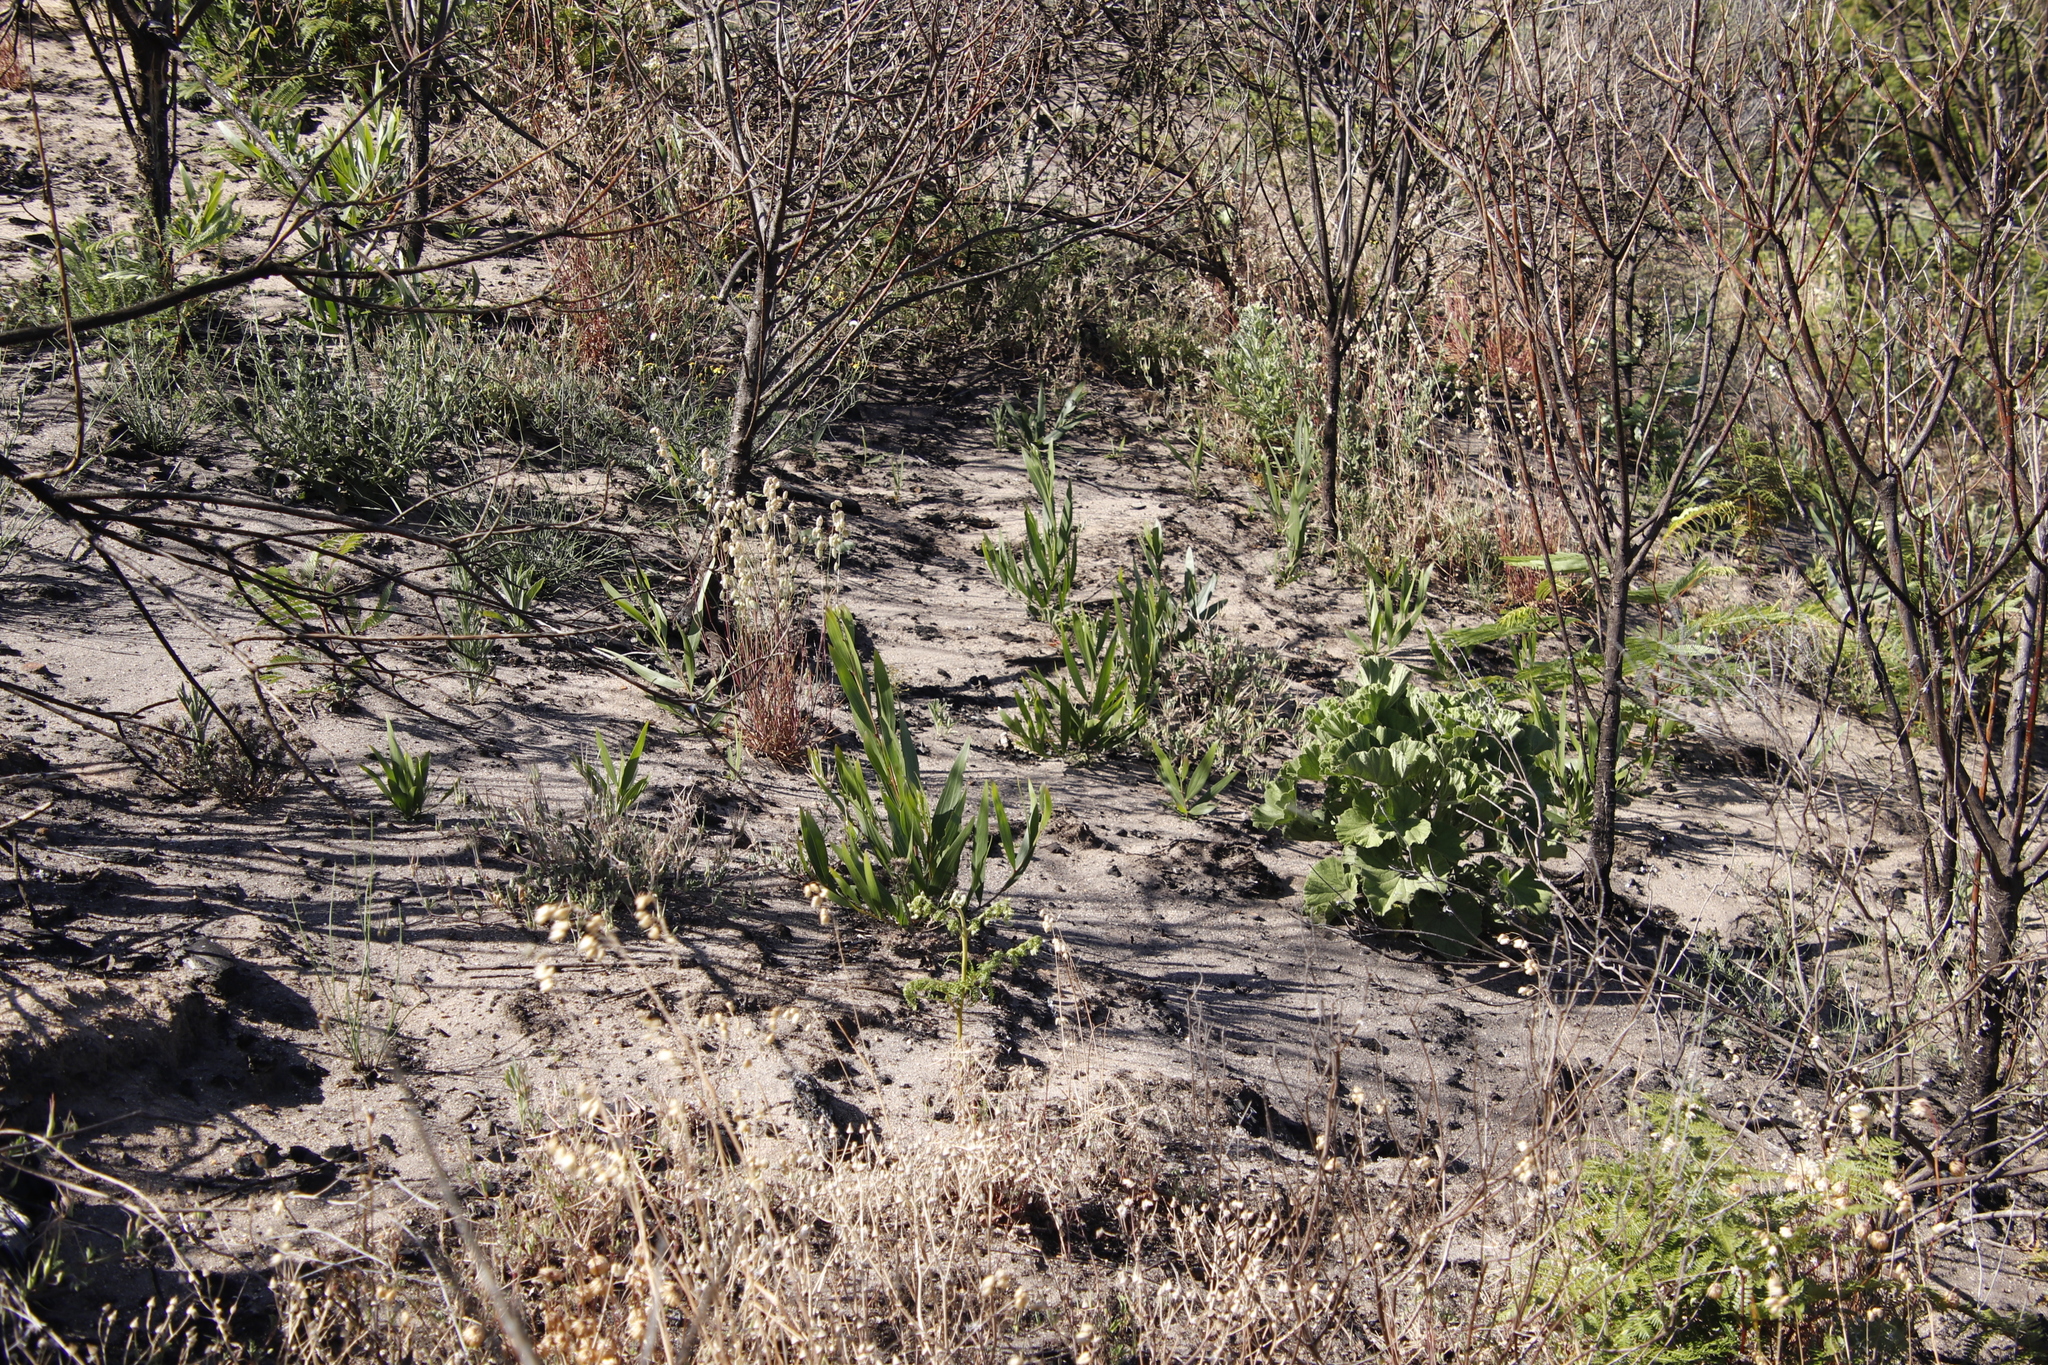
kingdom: Plantae
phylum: Tracheophyta
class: Magnoliopsida
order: Fabales
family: Fabaceae
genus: Acacia
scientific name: Acacia longifolia
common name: Sydney golden wattle
